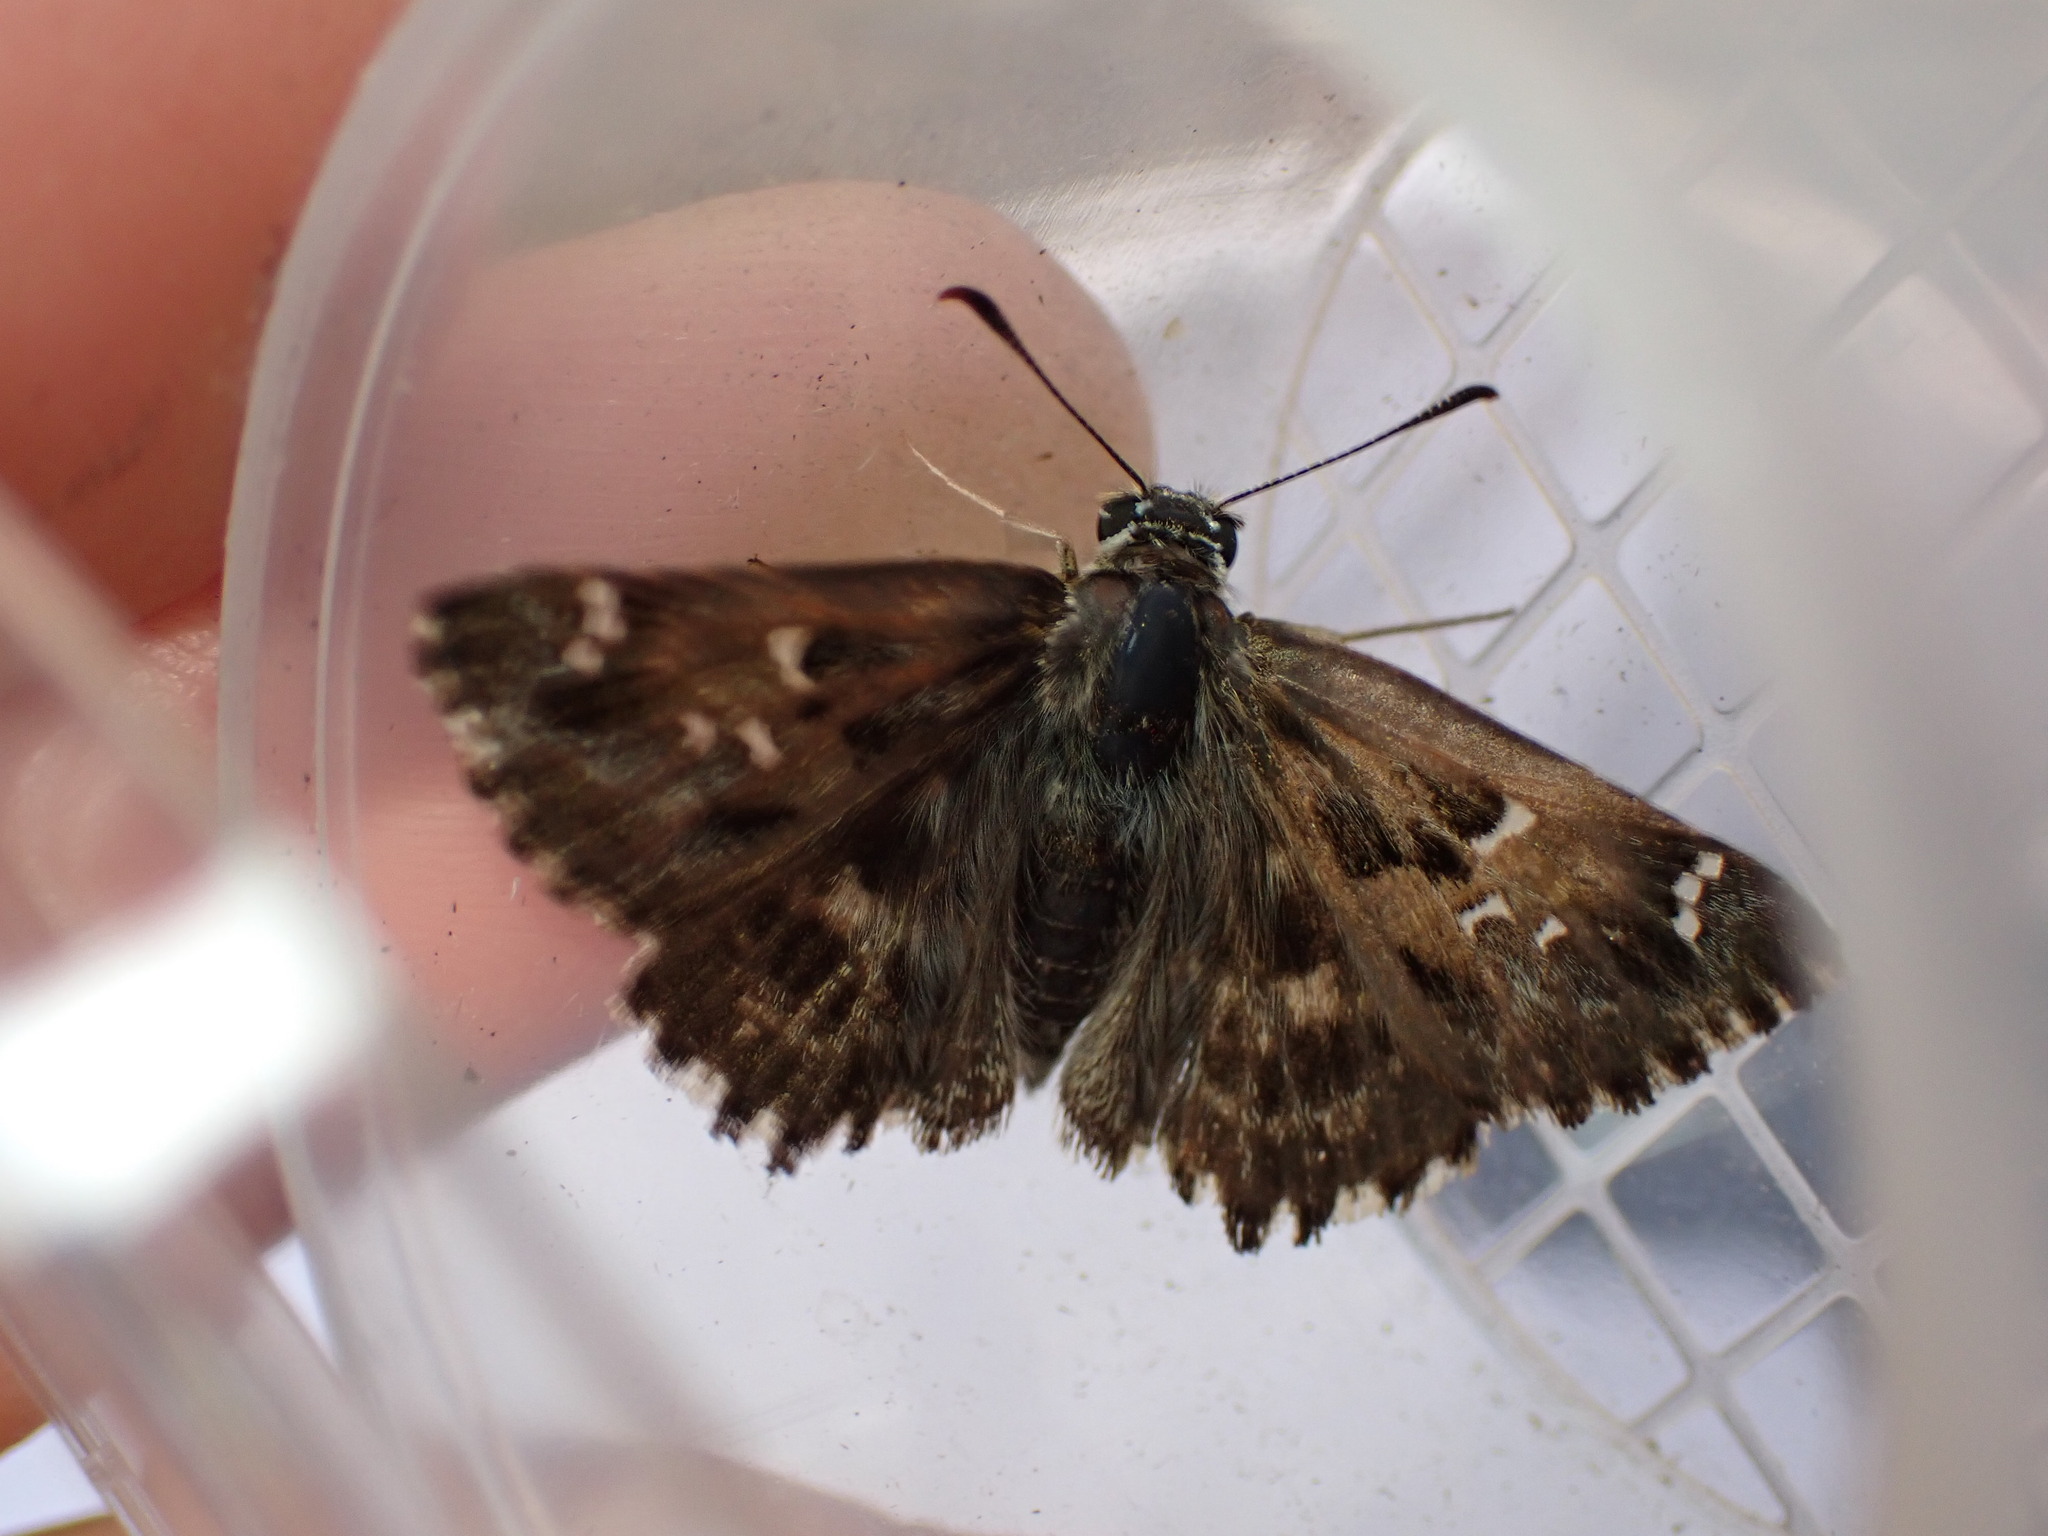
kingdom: Animalia
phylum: Arthropoda
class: Insecta
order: Lepidoptera
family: Hesperiidae
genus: Carcharodus
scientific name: Carcharodus alceae
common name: Mallow skipper
